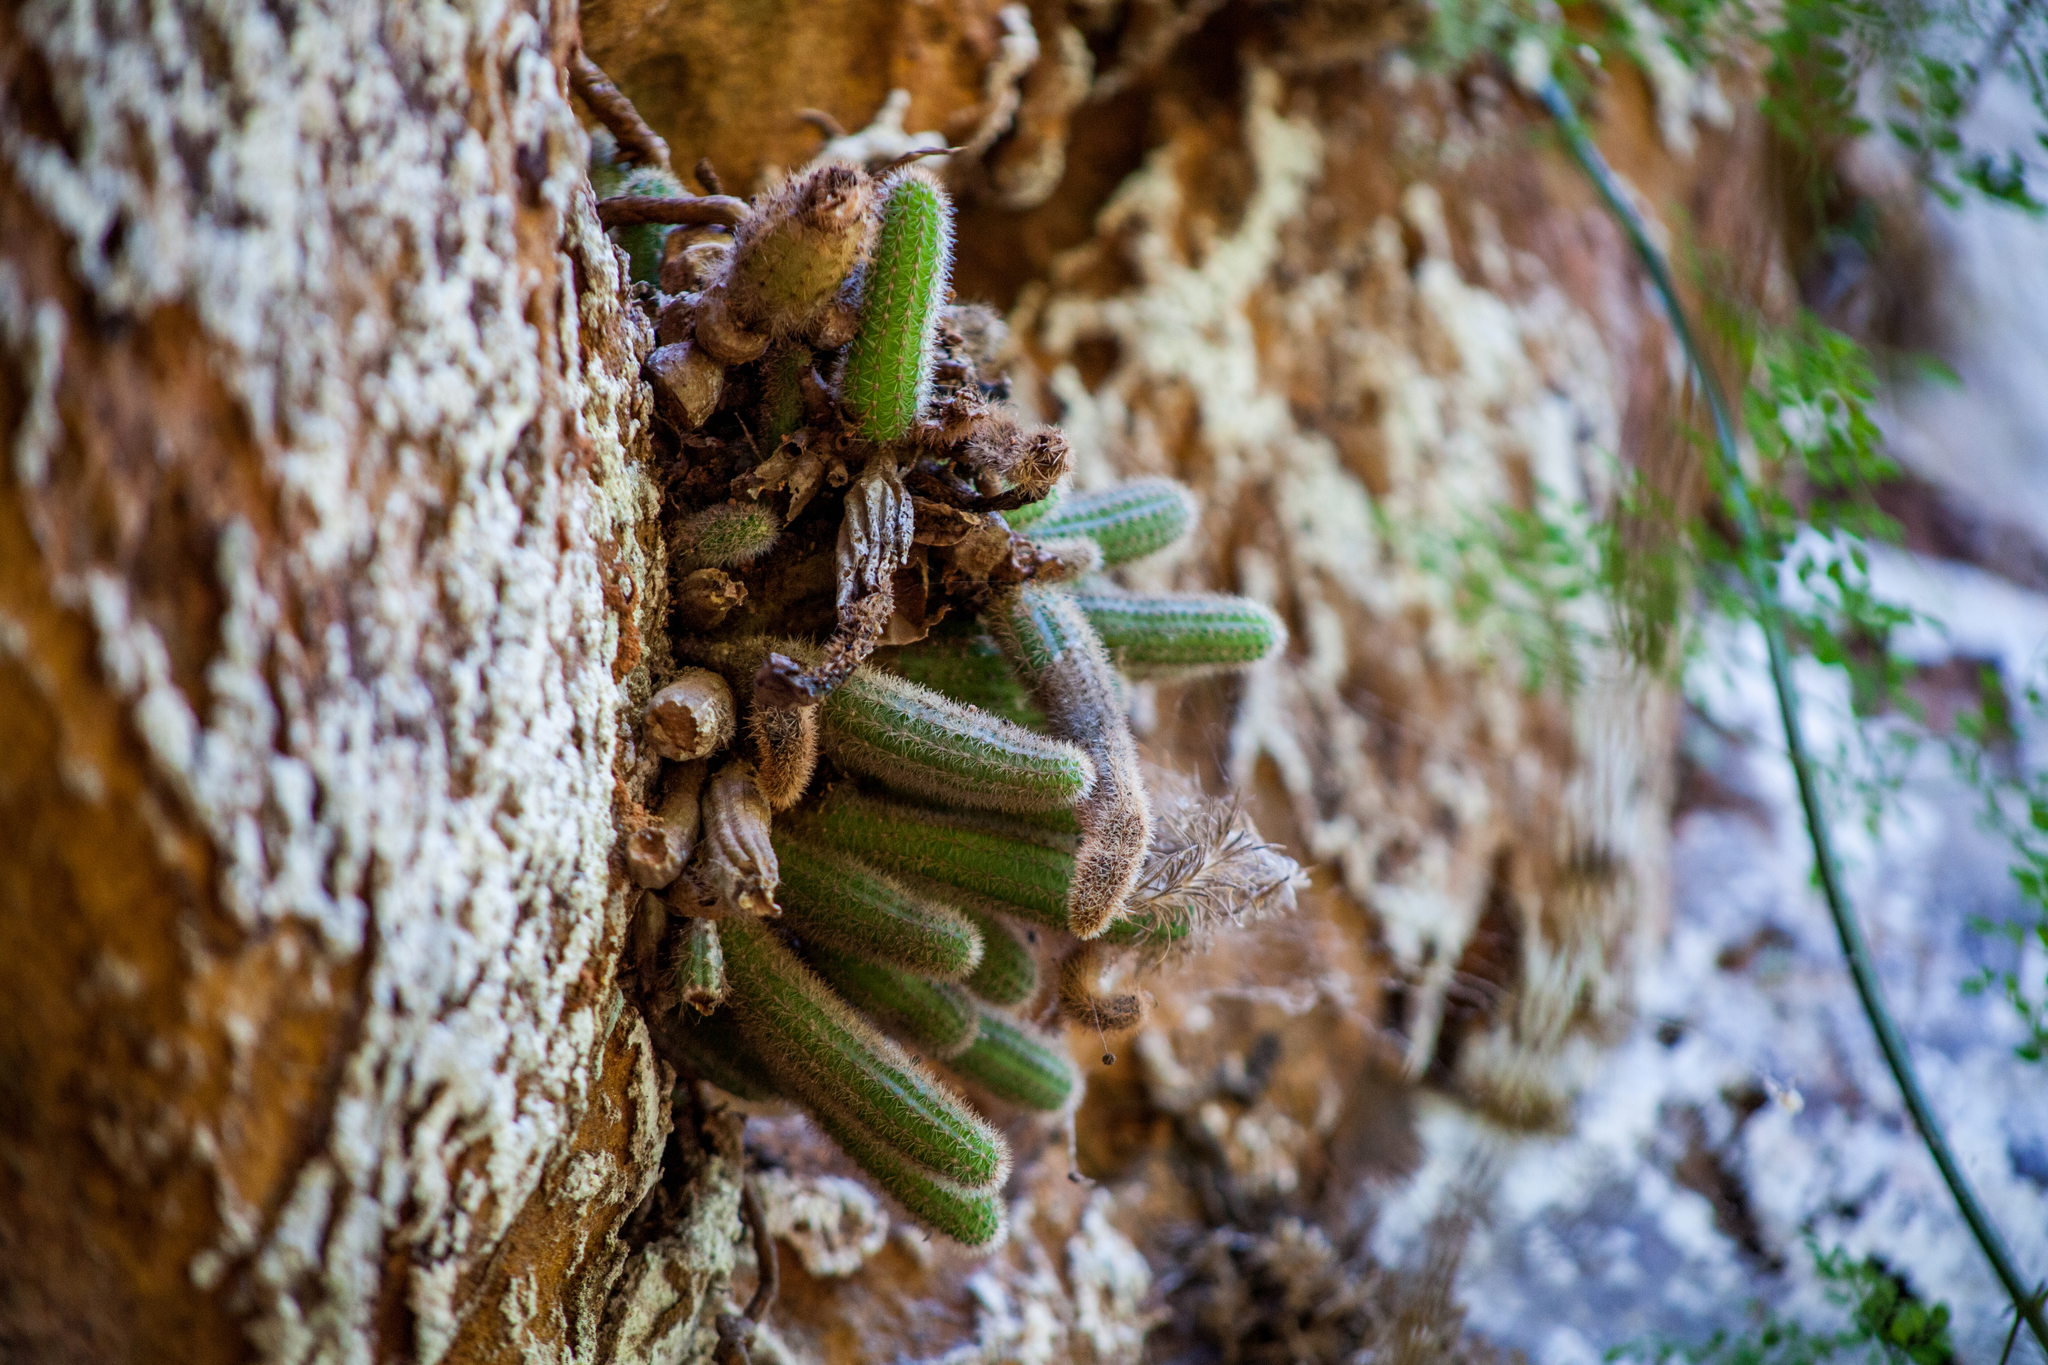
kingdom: Plantae
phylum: Tracheophyta
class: Magnoliopsida
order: Caryophyllales
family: Cactaceae
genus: Pilosocereus
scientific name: Pilosocereus parvus
